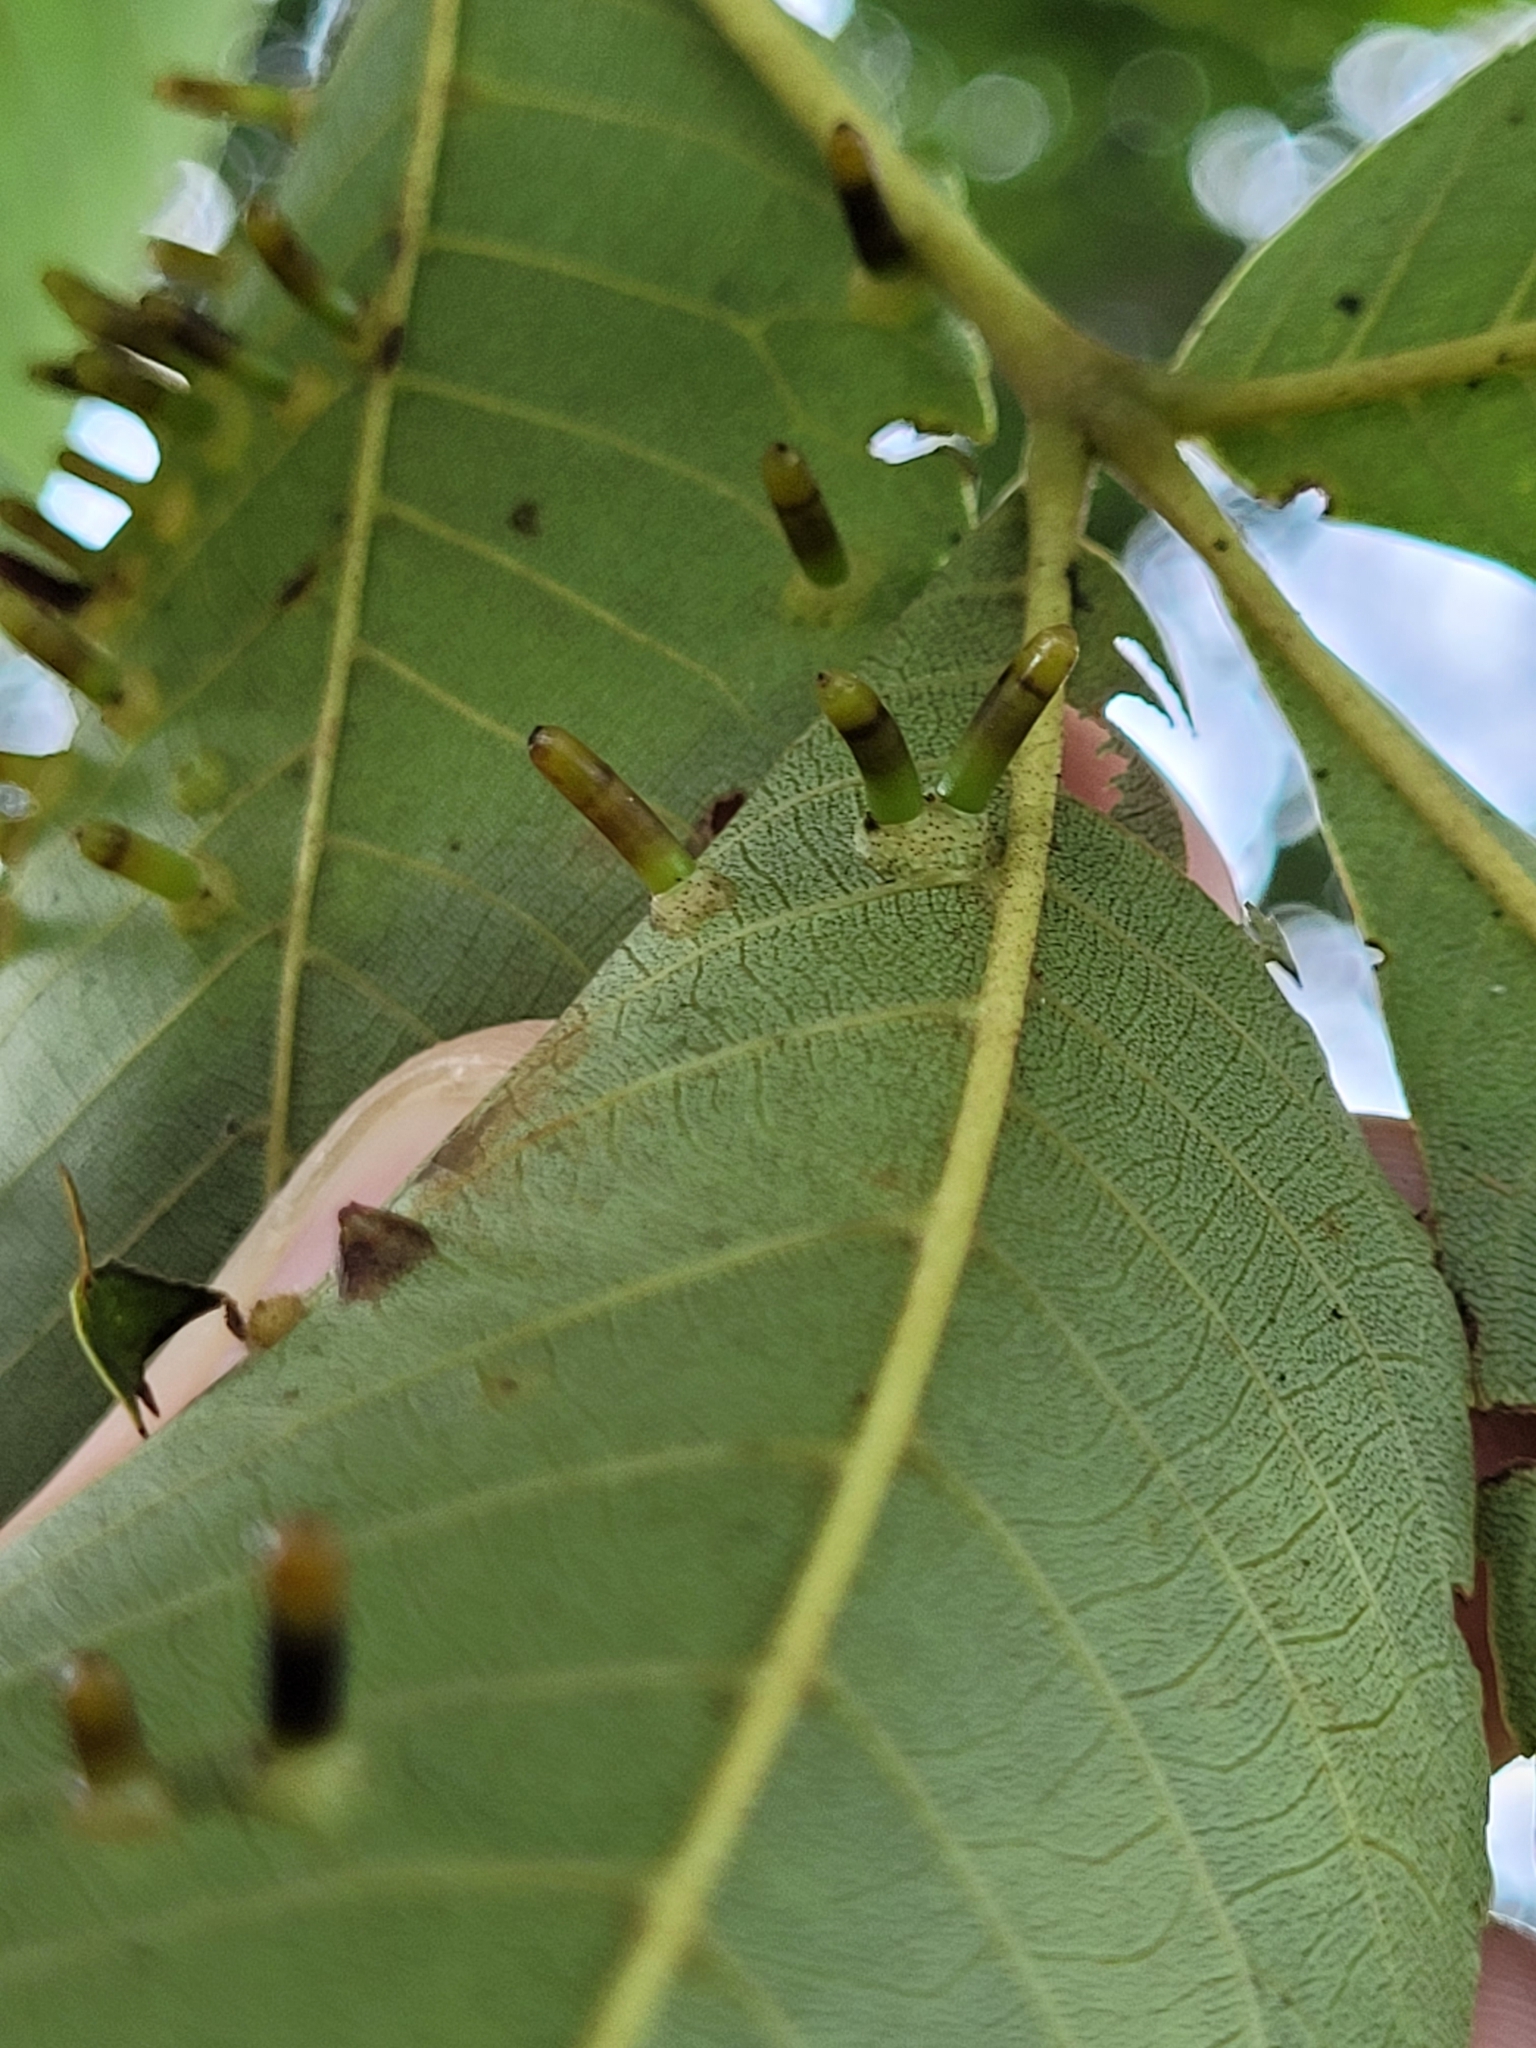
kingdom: Animalia
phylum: Arthropoda
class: Insecta
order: Diptera
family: Cecidomyiidae
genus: Caryomyia
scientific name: Caryomyia tubicola
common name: Hickory bullet gall midge
